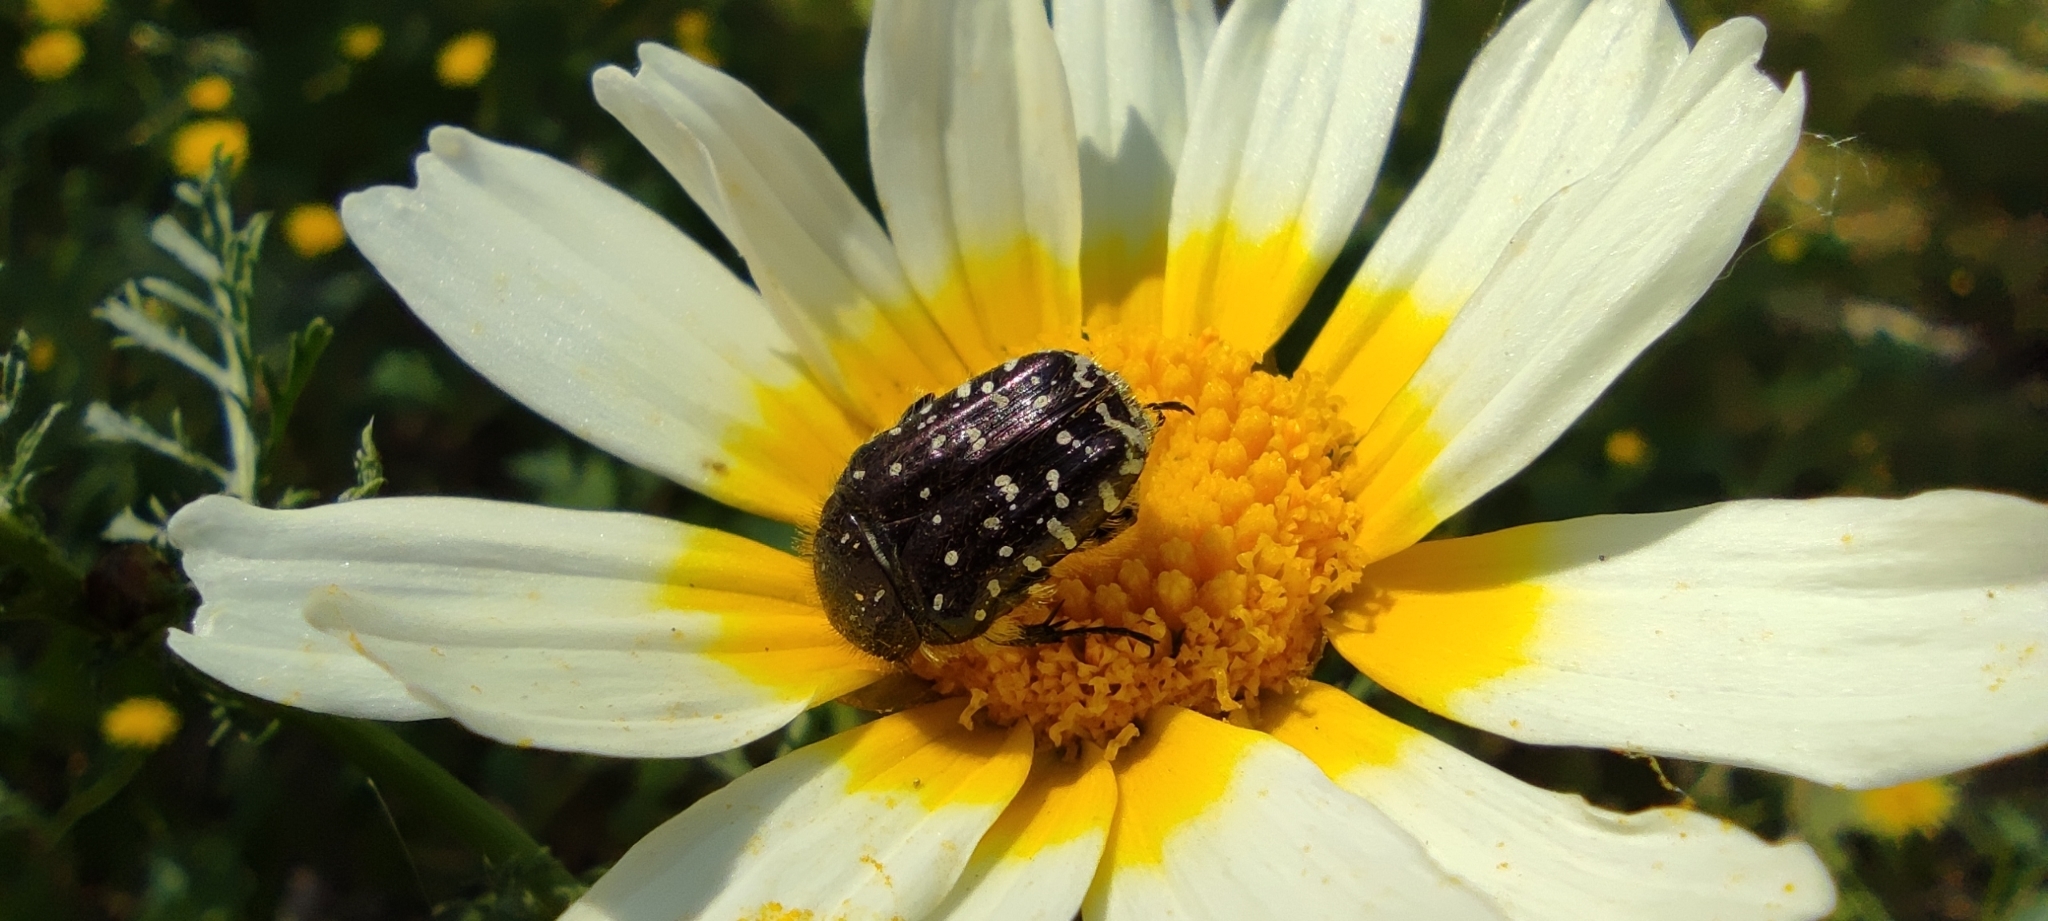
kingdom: Animalia
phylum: Arthropoda
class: Insecta
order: Coleoptera
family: Scarabaeidae
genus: Oxythyrea
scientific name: Oxythyrea funesta
